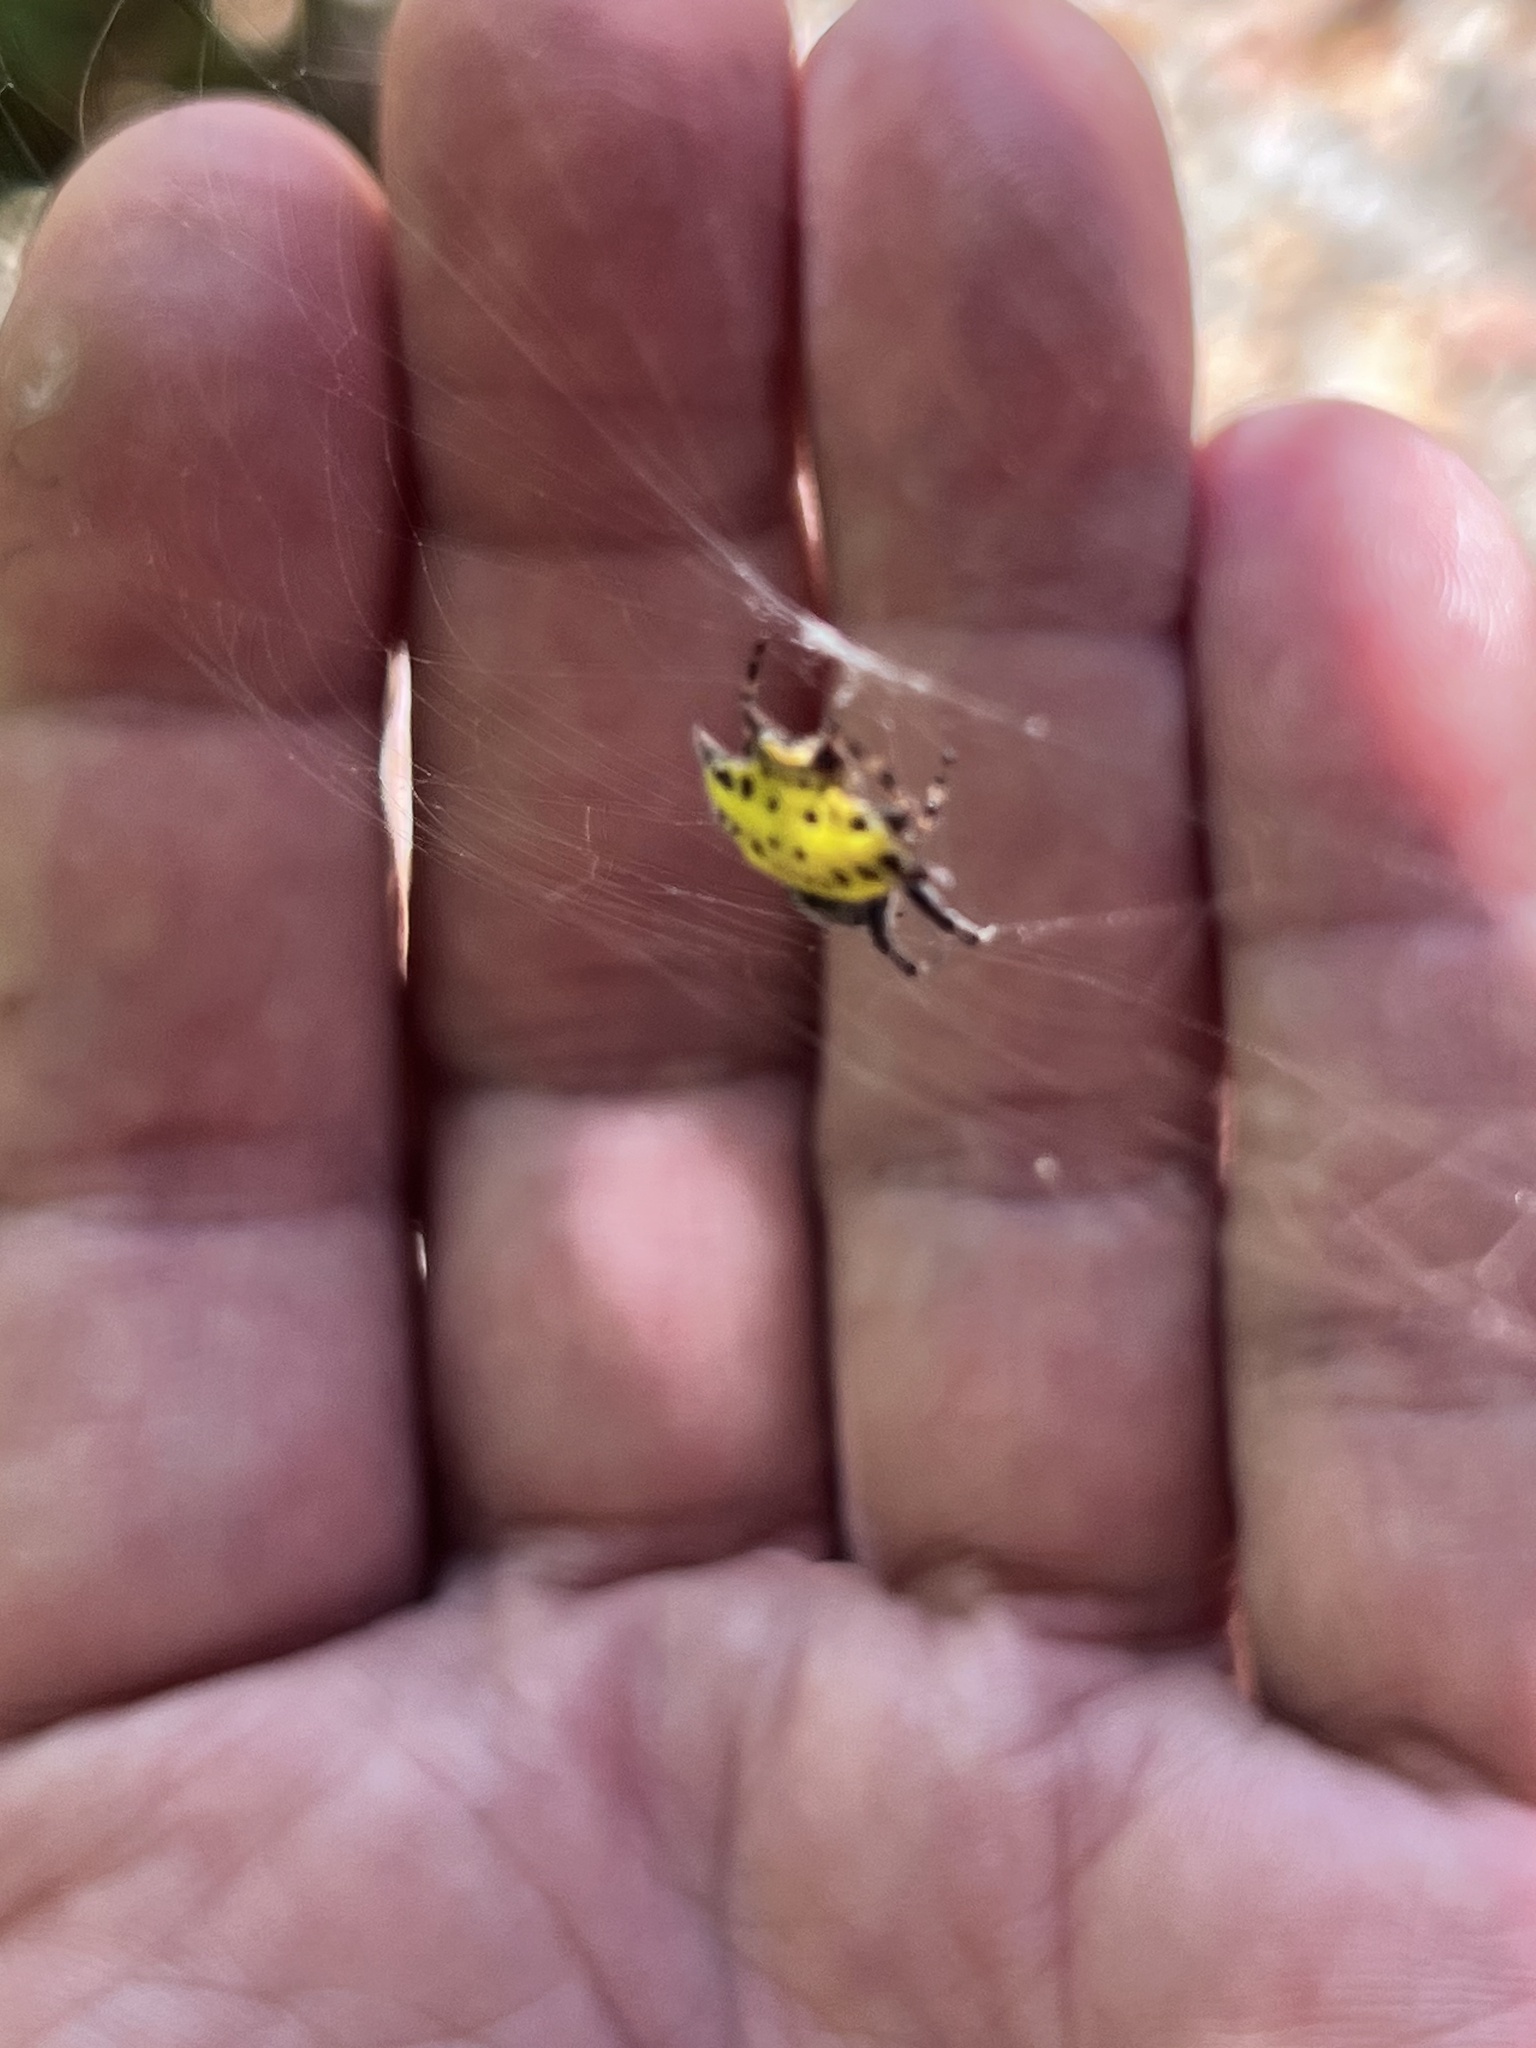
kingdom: Animalia
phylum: Arthropoda
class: Arachnida
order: Araneae
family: Araneidae
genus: Gasteracantha
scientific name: Gasteracantha cancriformis
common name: Orb weavers
